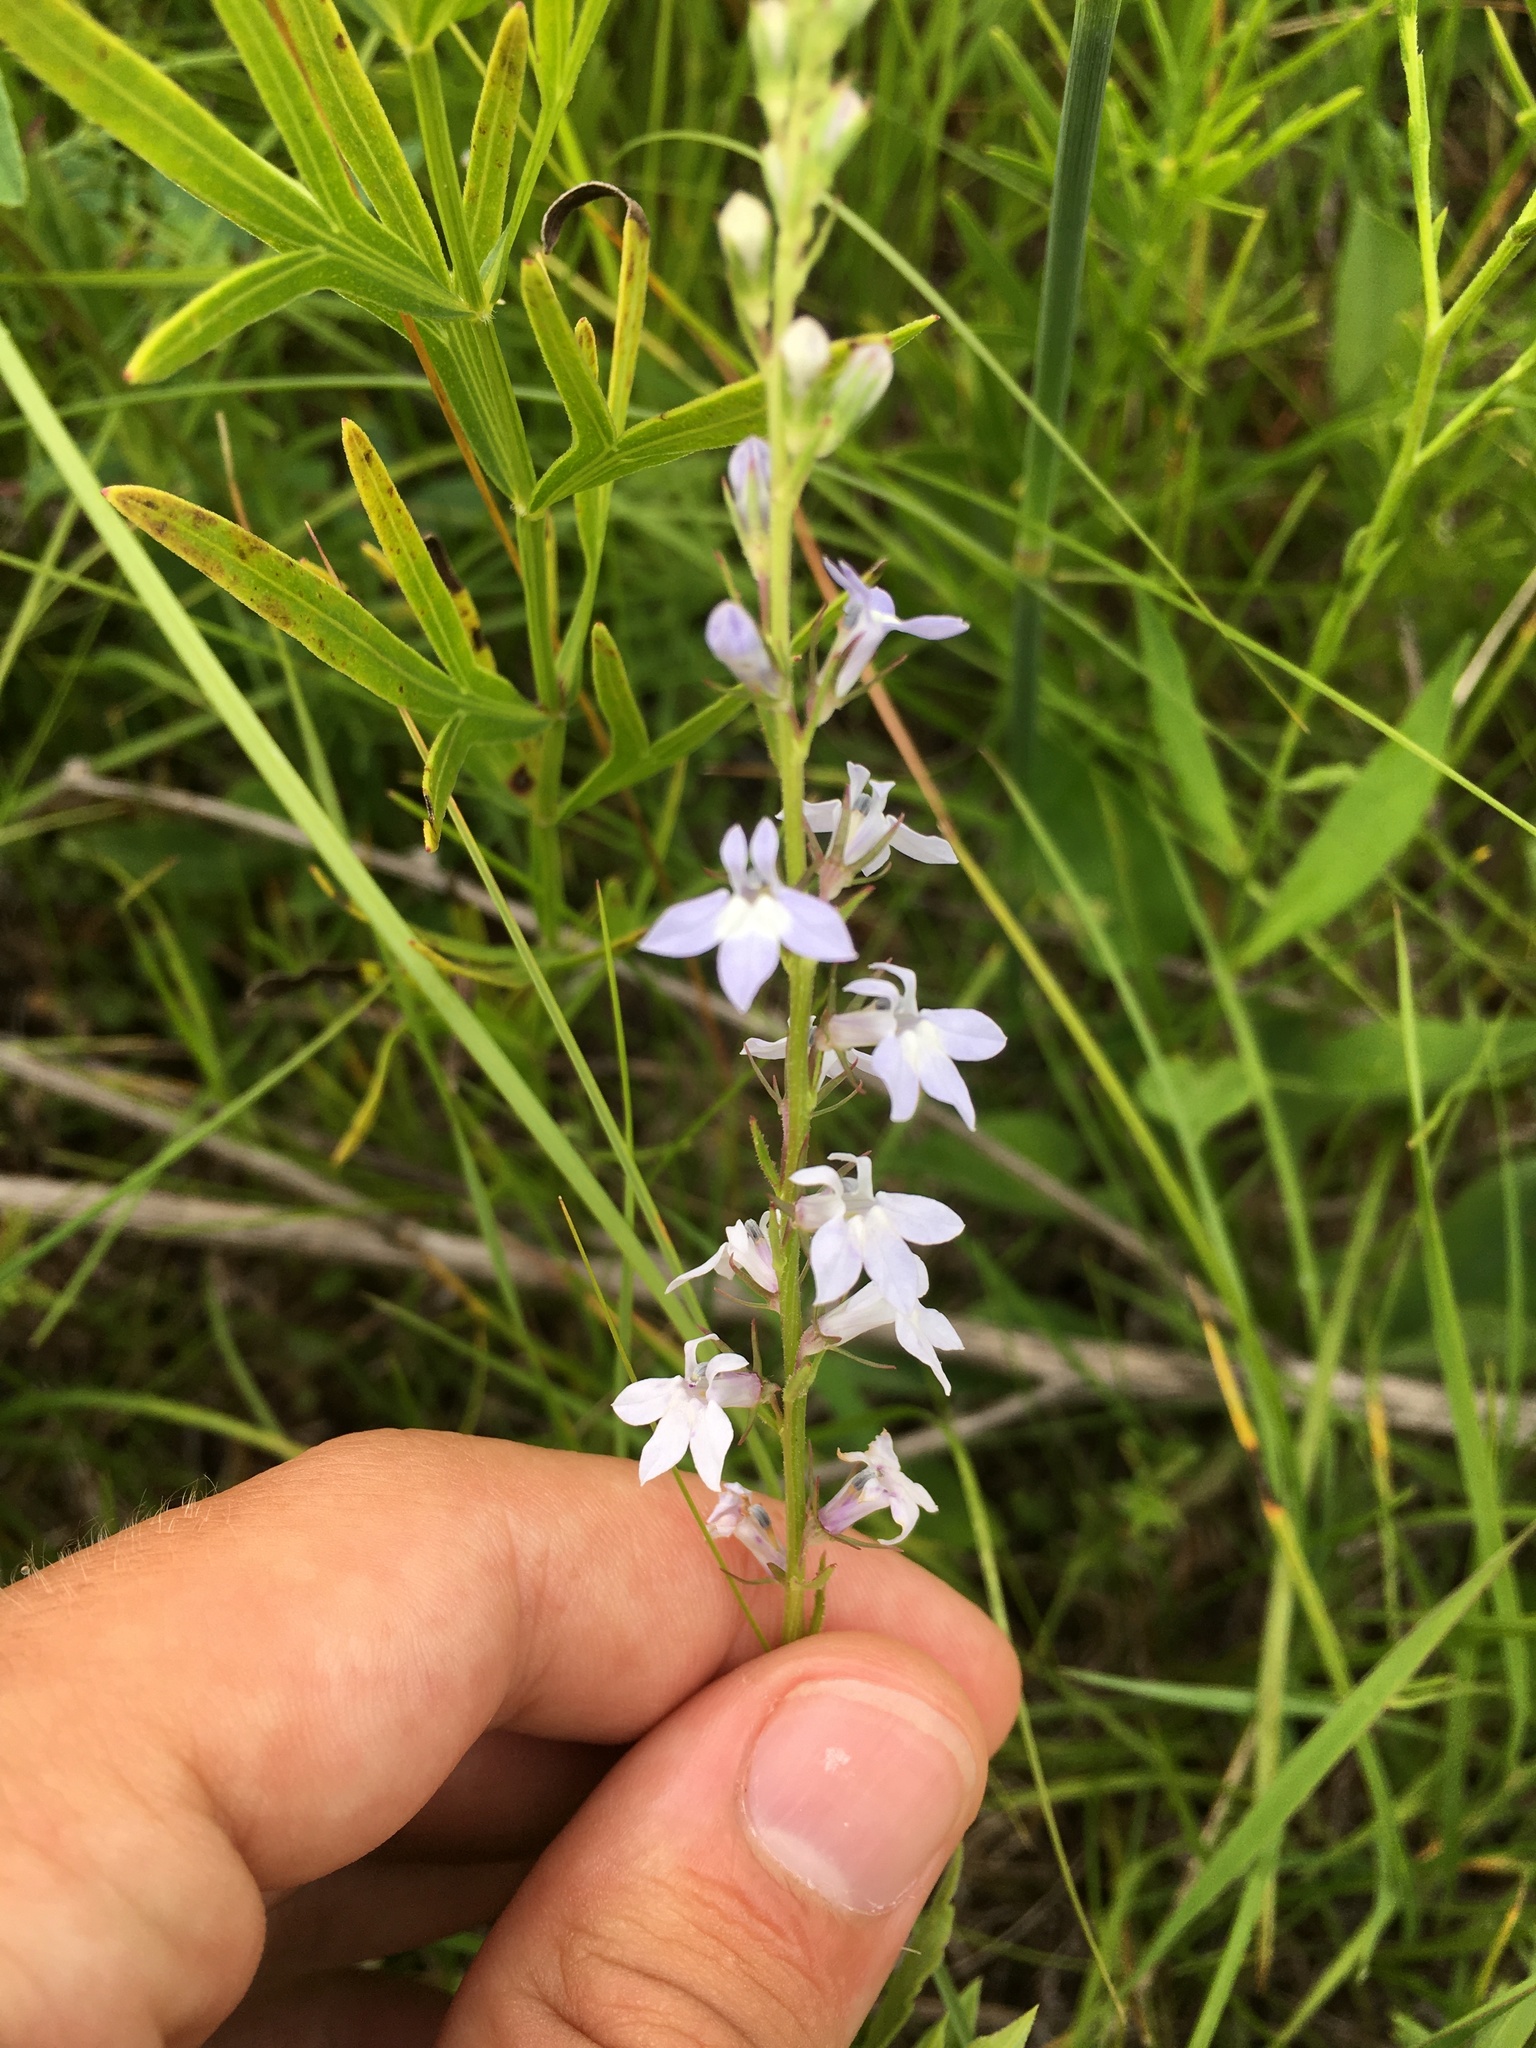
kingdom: Plantae
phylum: Tracheophyta
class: Magnoliopsida
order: Asterales
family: Campanulaceae
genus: Lobelia
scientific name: Lobelia spicata
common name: Pale-spike lobelia
